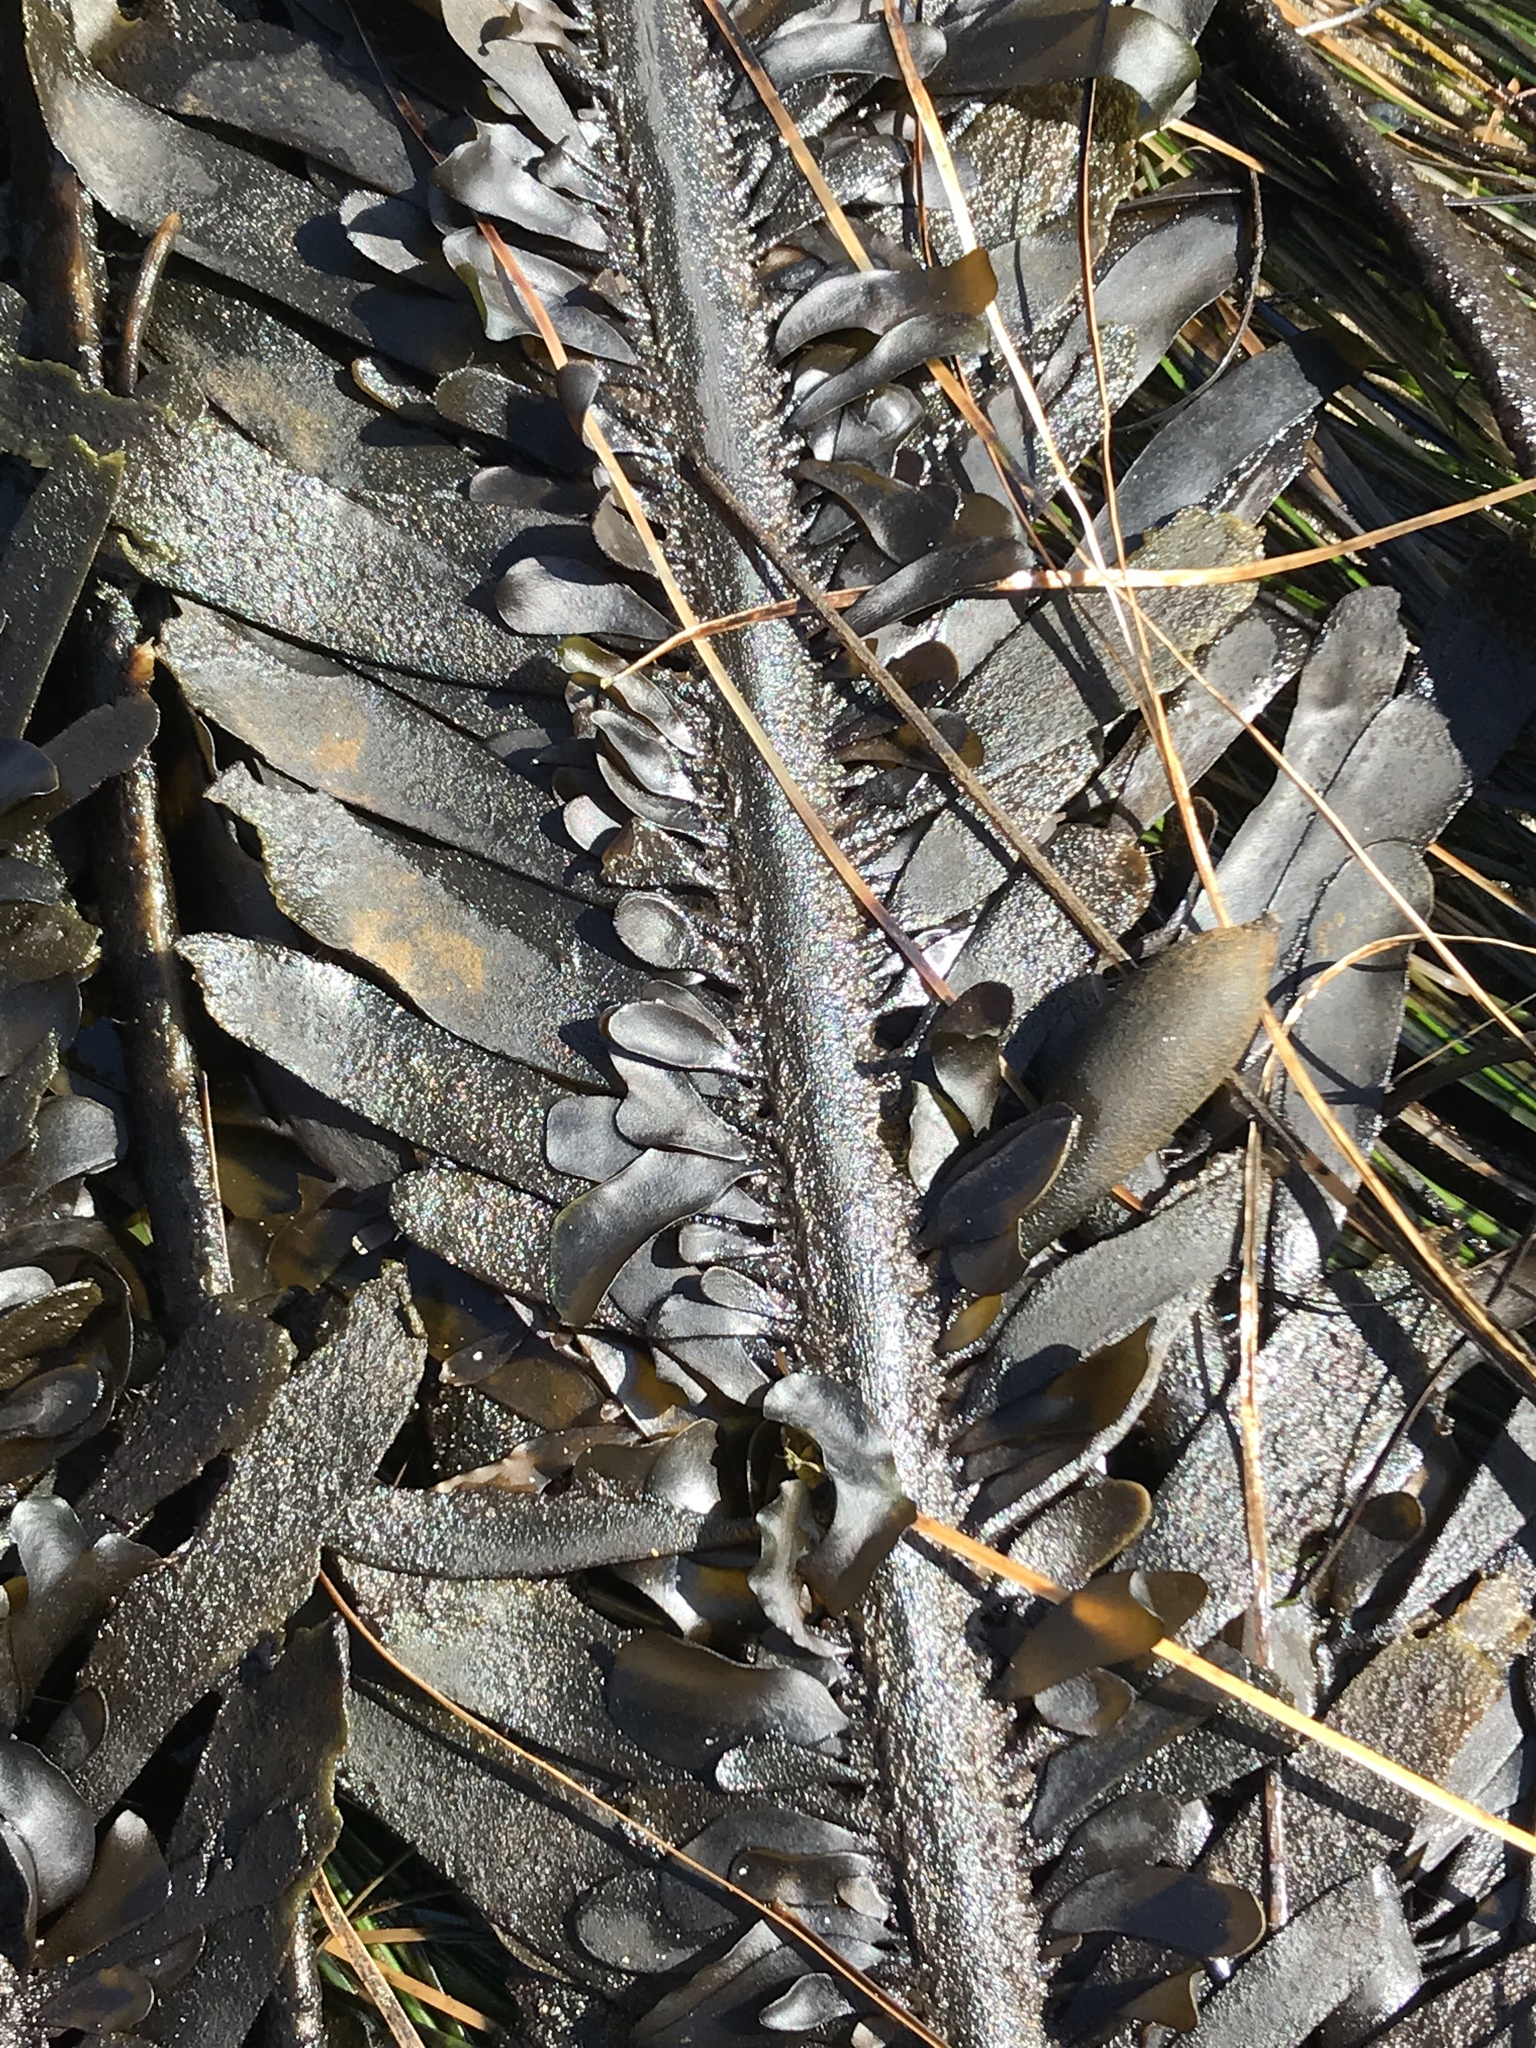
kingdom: Chromista
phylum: Ochrophyta
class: Phaeophyceae
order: Laminariales
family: Lessoniaceae
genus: Egregia
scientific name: Egregia menziesii
